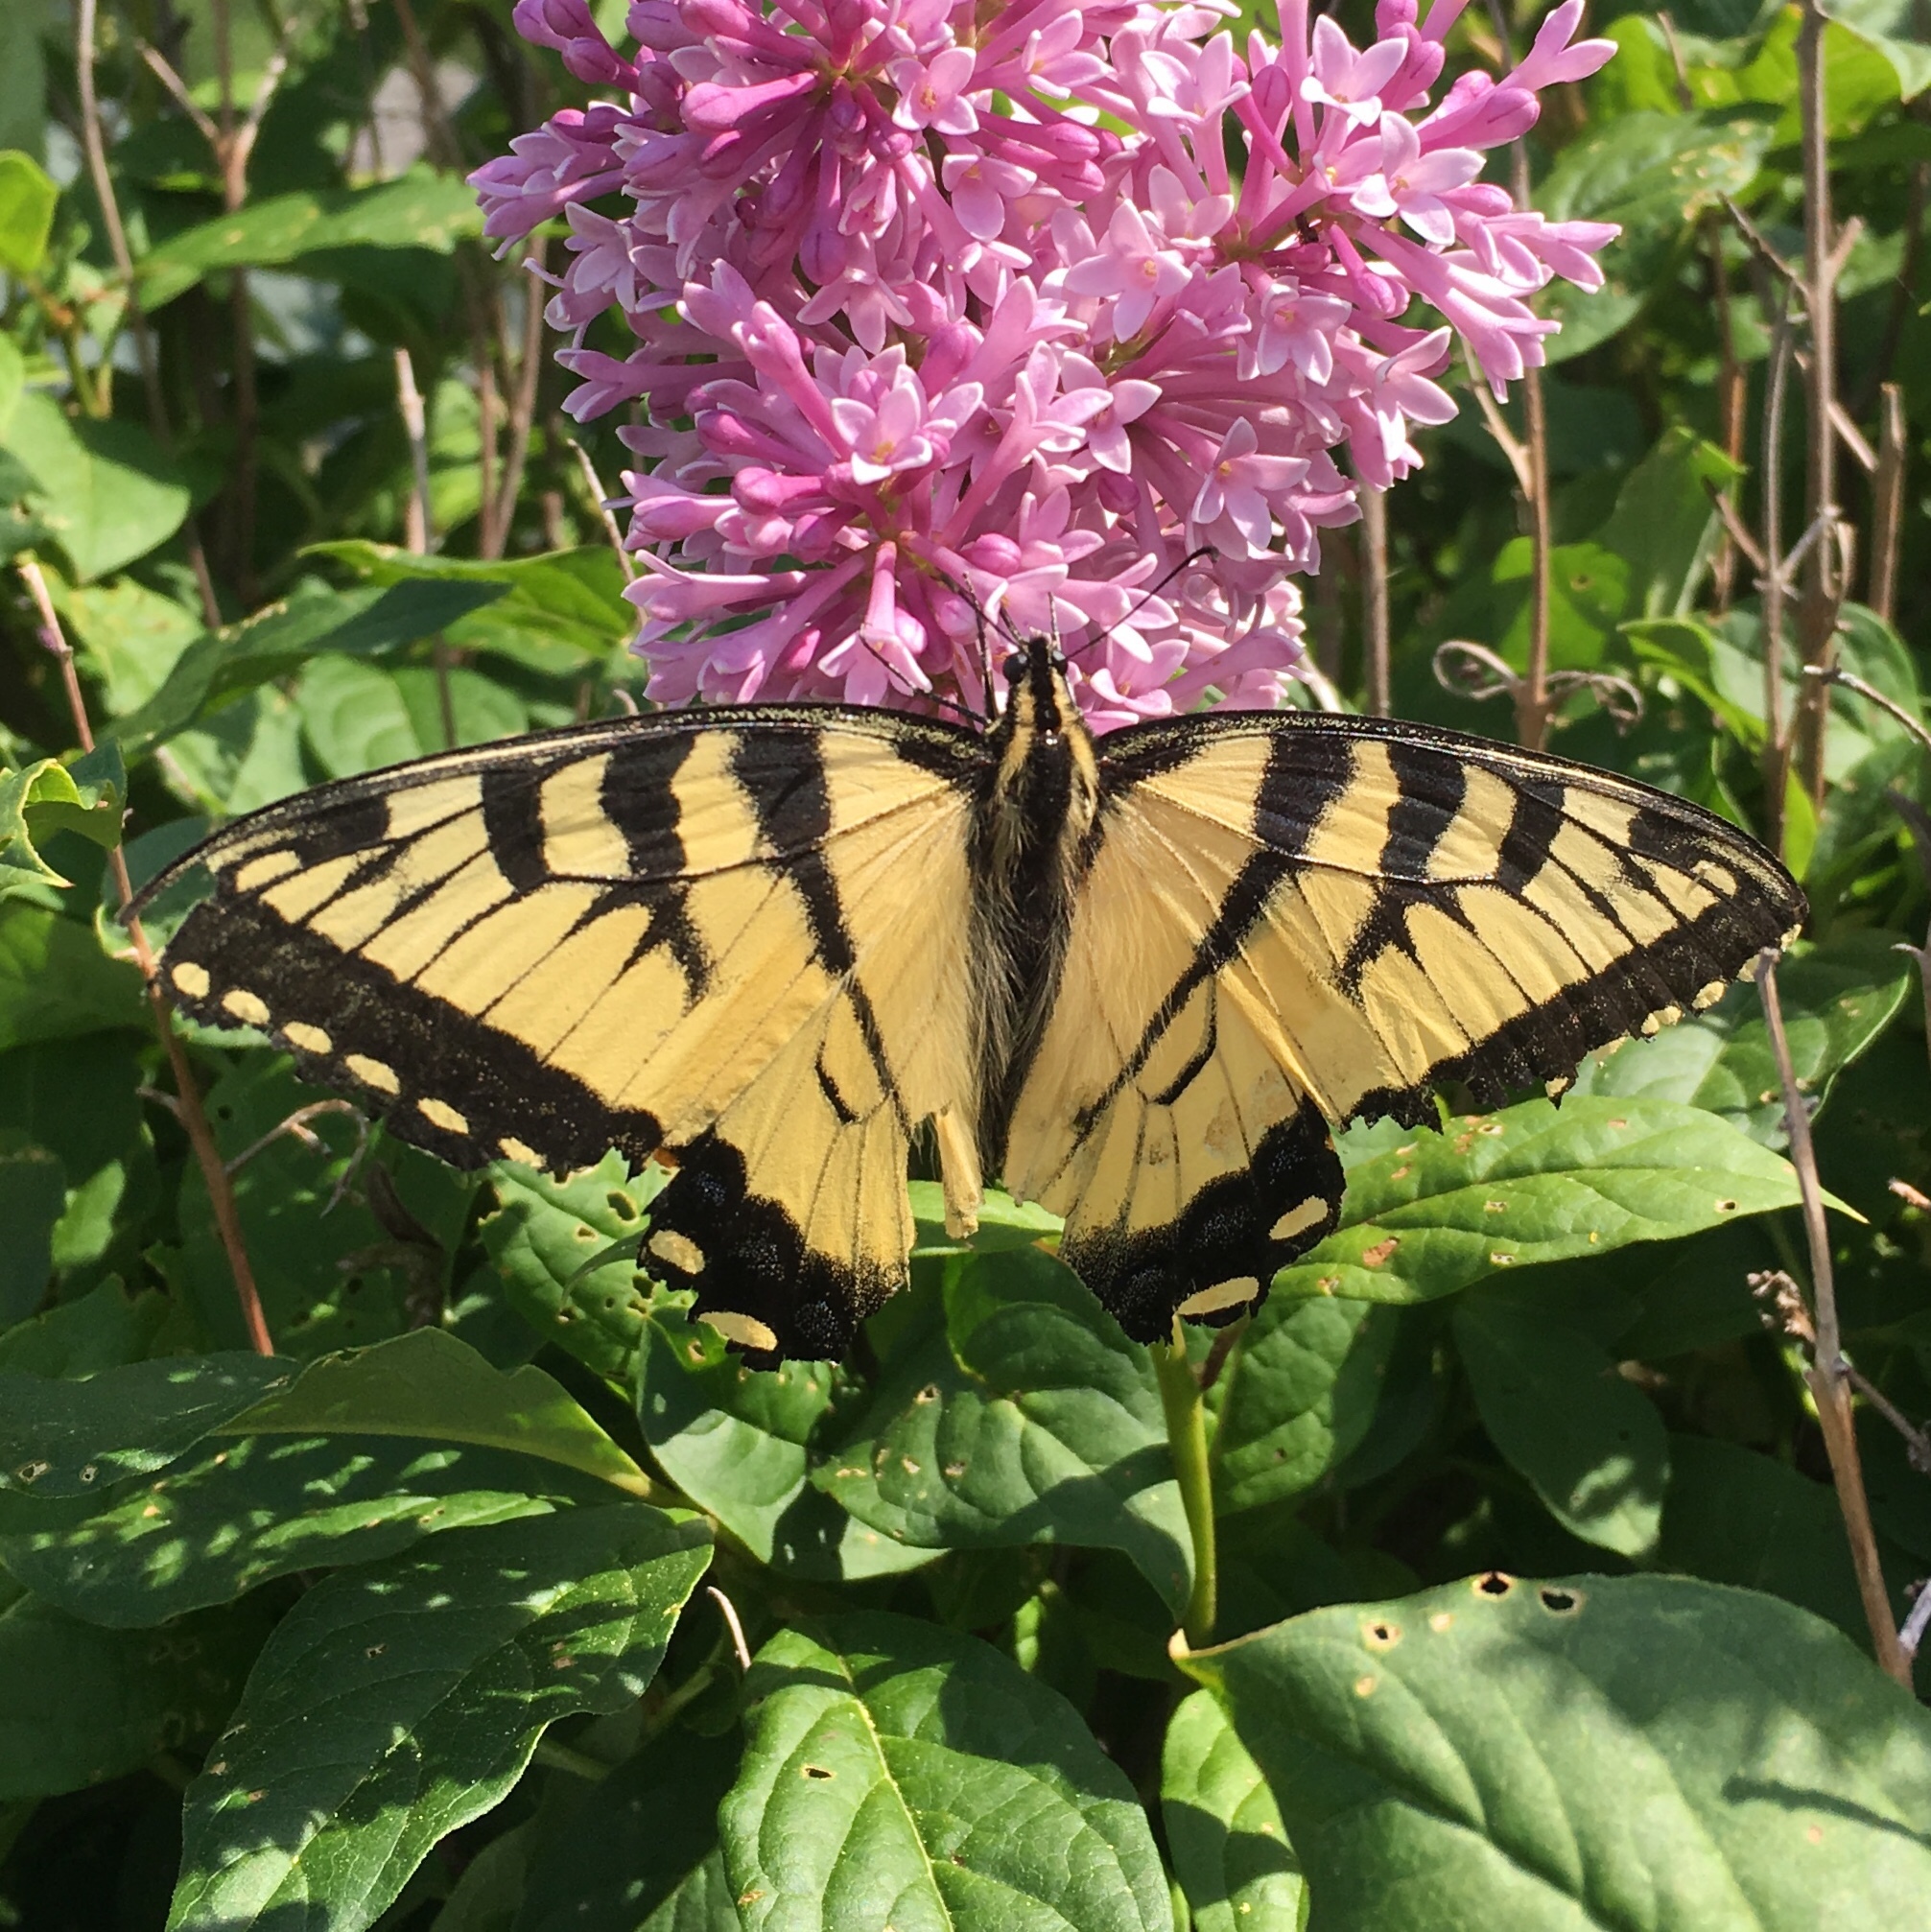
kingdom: Animalia
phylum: Arthropoda
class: Insecta
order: Lepidoptera
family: Papilionidae
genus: Papilio
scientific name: Papilio glaucus
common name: Tiger swallowtail
